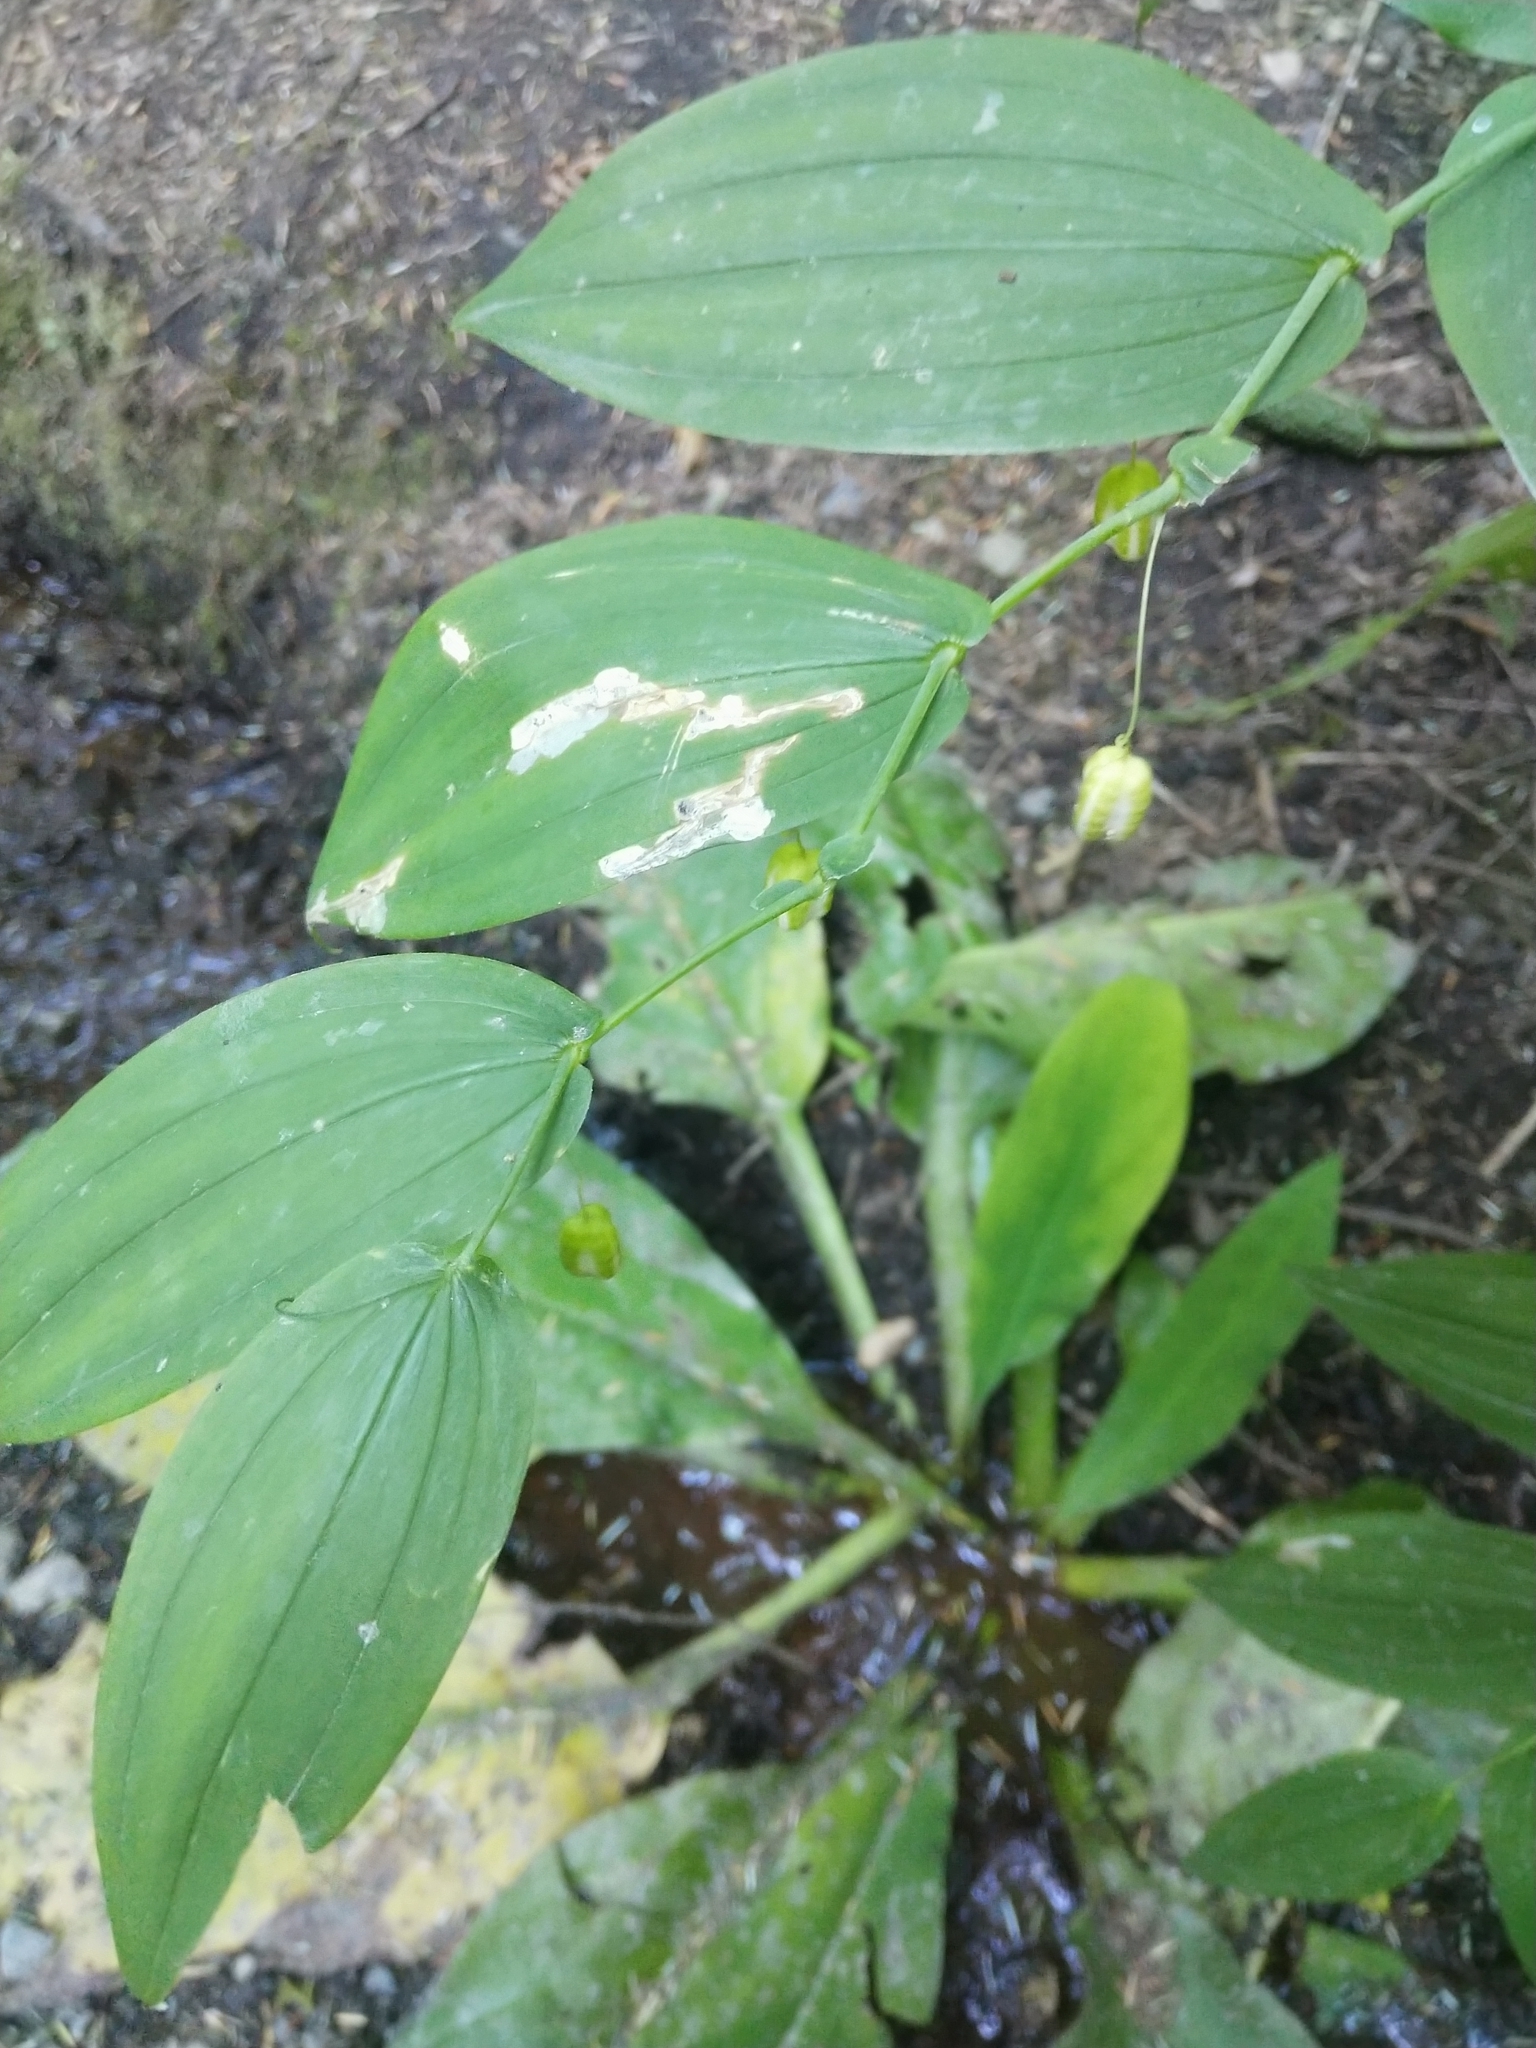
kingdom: Plantae
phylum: Tracheophyta
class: Liliopsida
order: Liliales
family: Liliaceae
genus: Streptopus
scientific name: Streptopus amplexifolius
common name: Clasp twisted stalk
